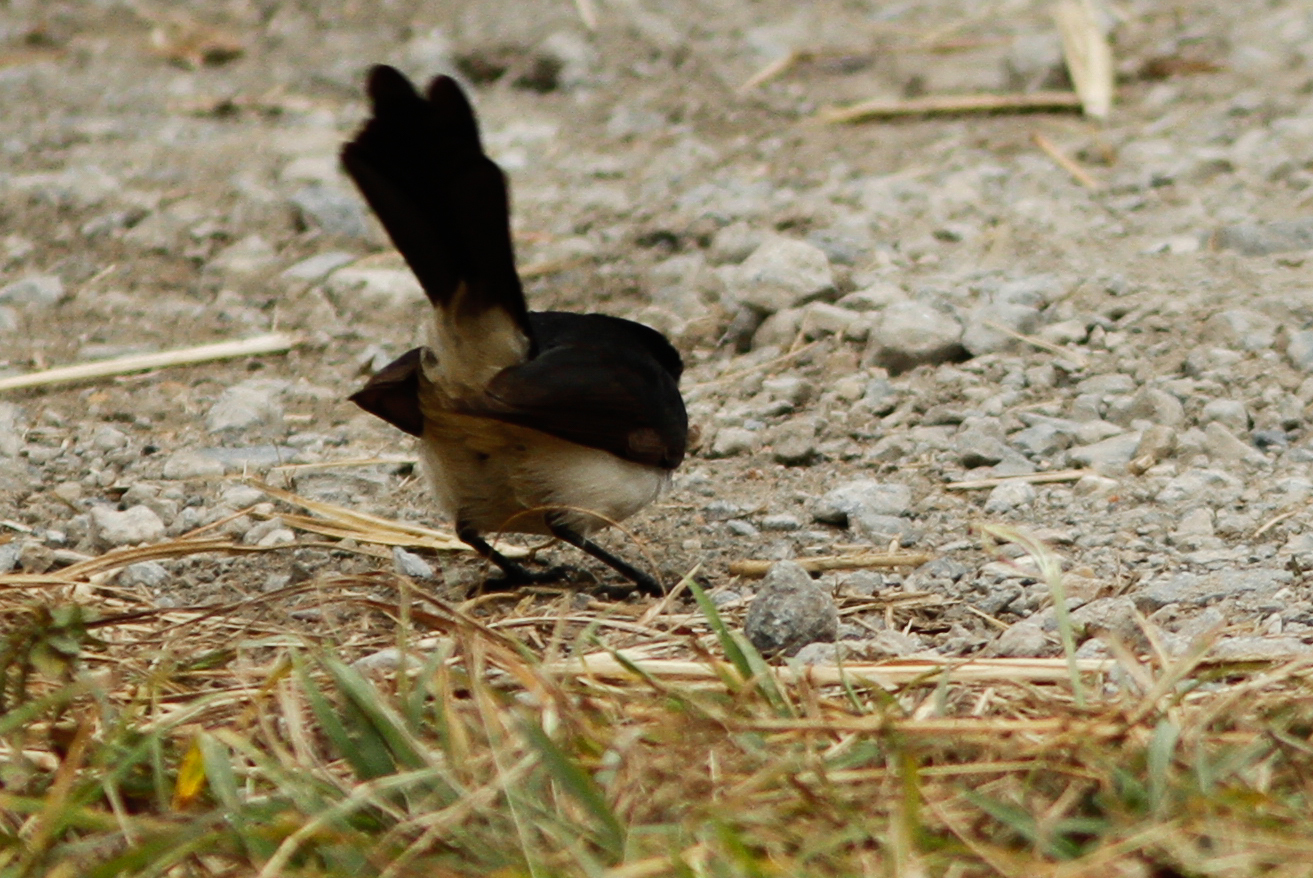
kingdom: Animalia
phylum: Chordata
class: Aves
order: Passeriformes
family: Rhipiduridae
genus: Rhipidura
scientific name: Rhipidura leucophrys
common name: Willie wagtail
